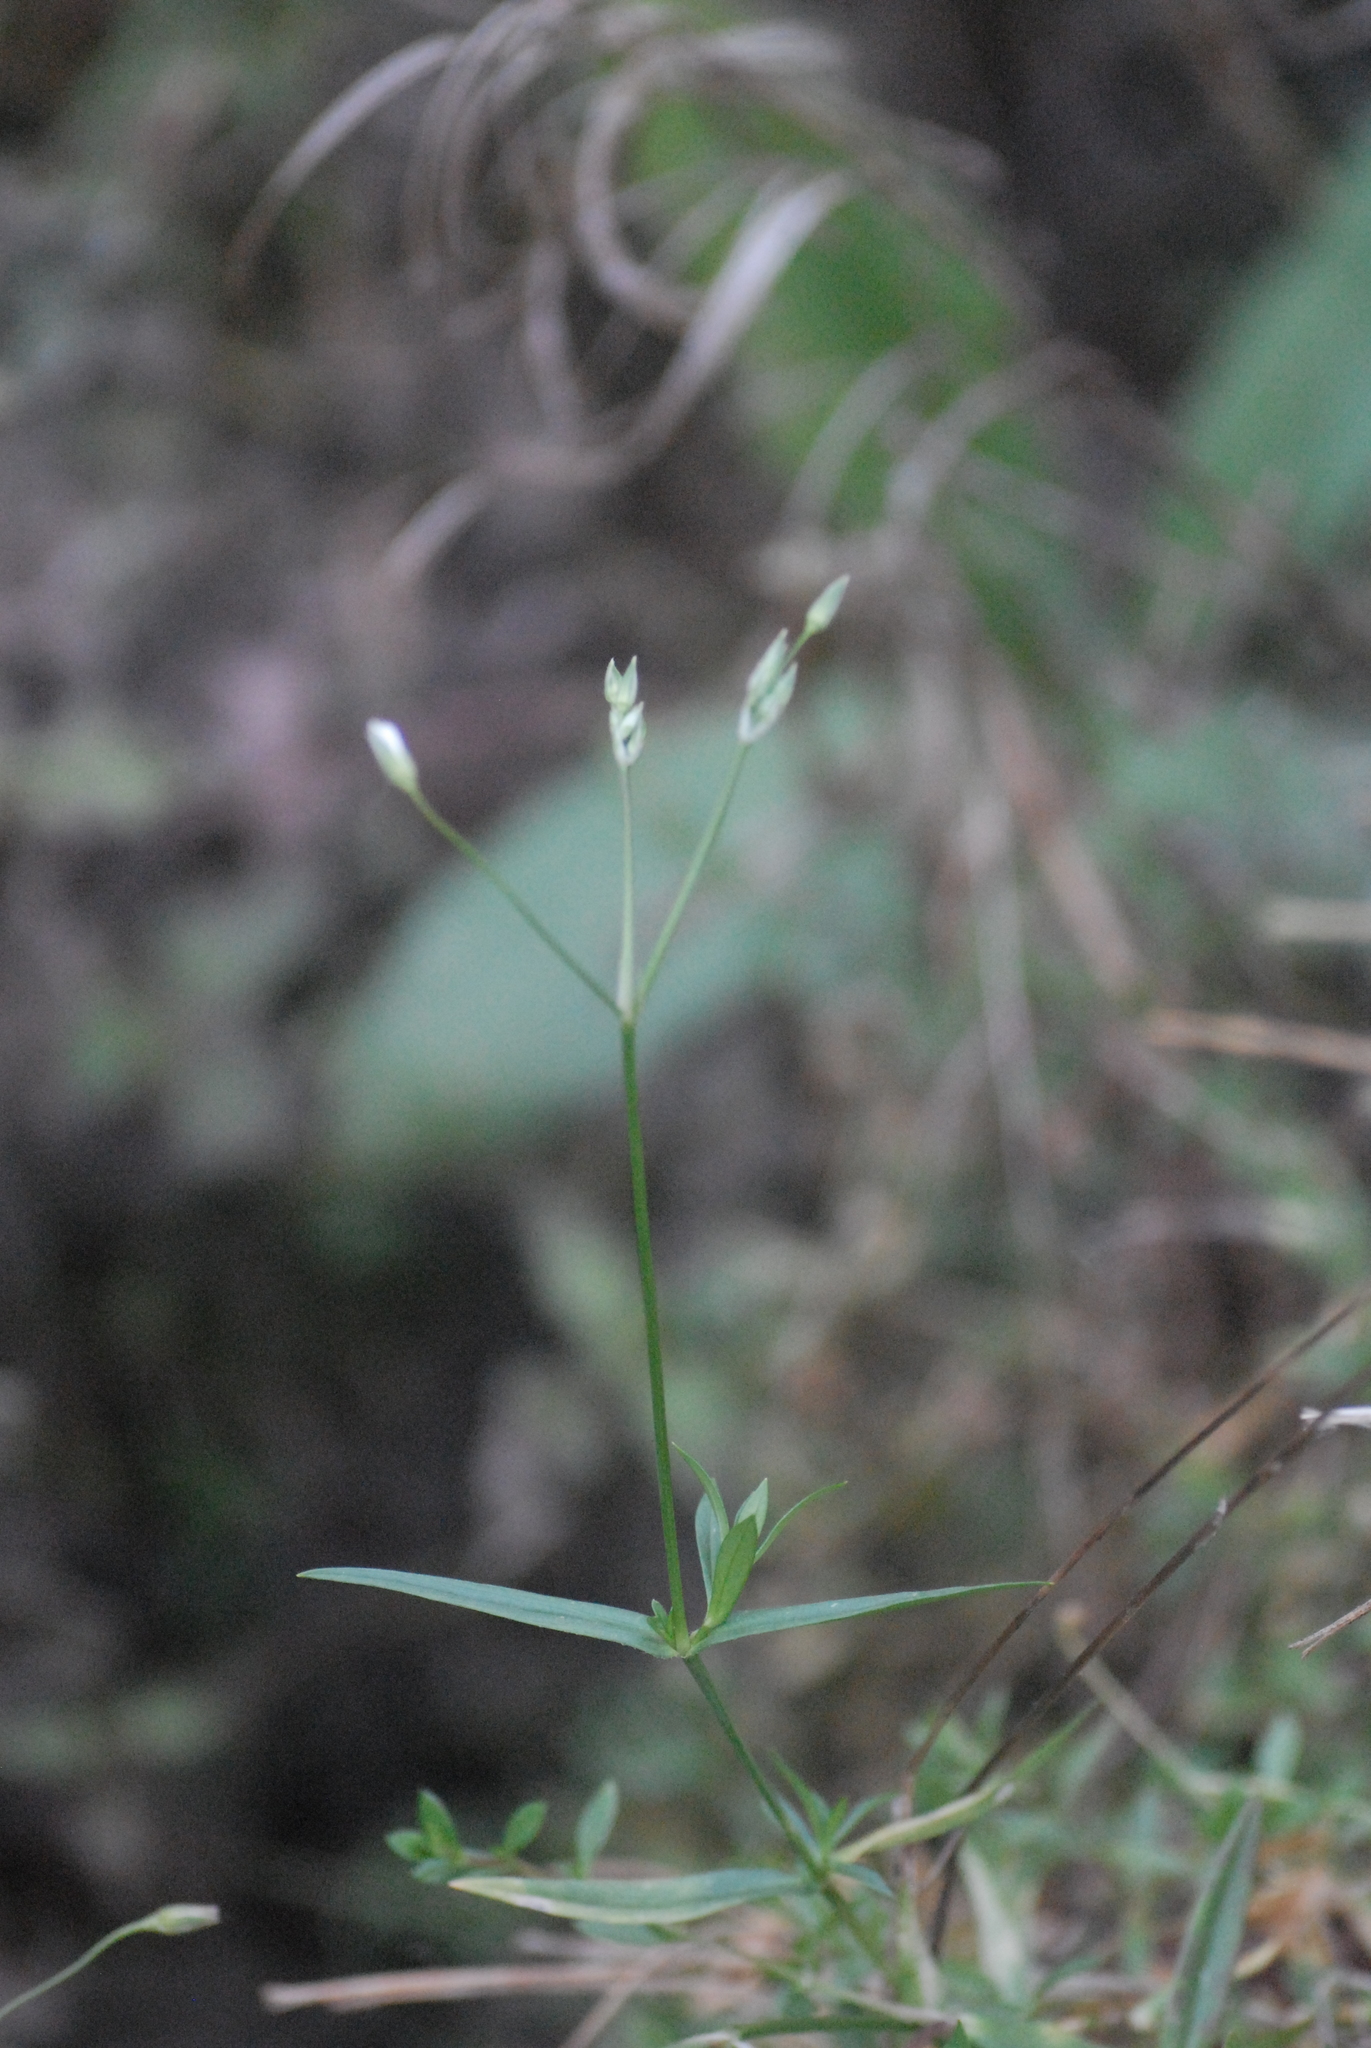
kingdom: Plantae
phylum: Tracheophyta
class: Magnoliopsida
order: Caryophyllales
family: Caryophyllaceae
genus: Stellaria
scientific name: Stellaria graminea
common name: Grass-like starwort
